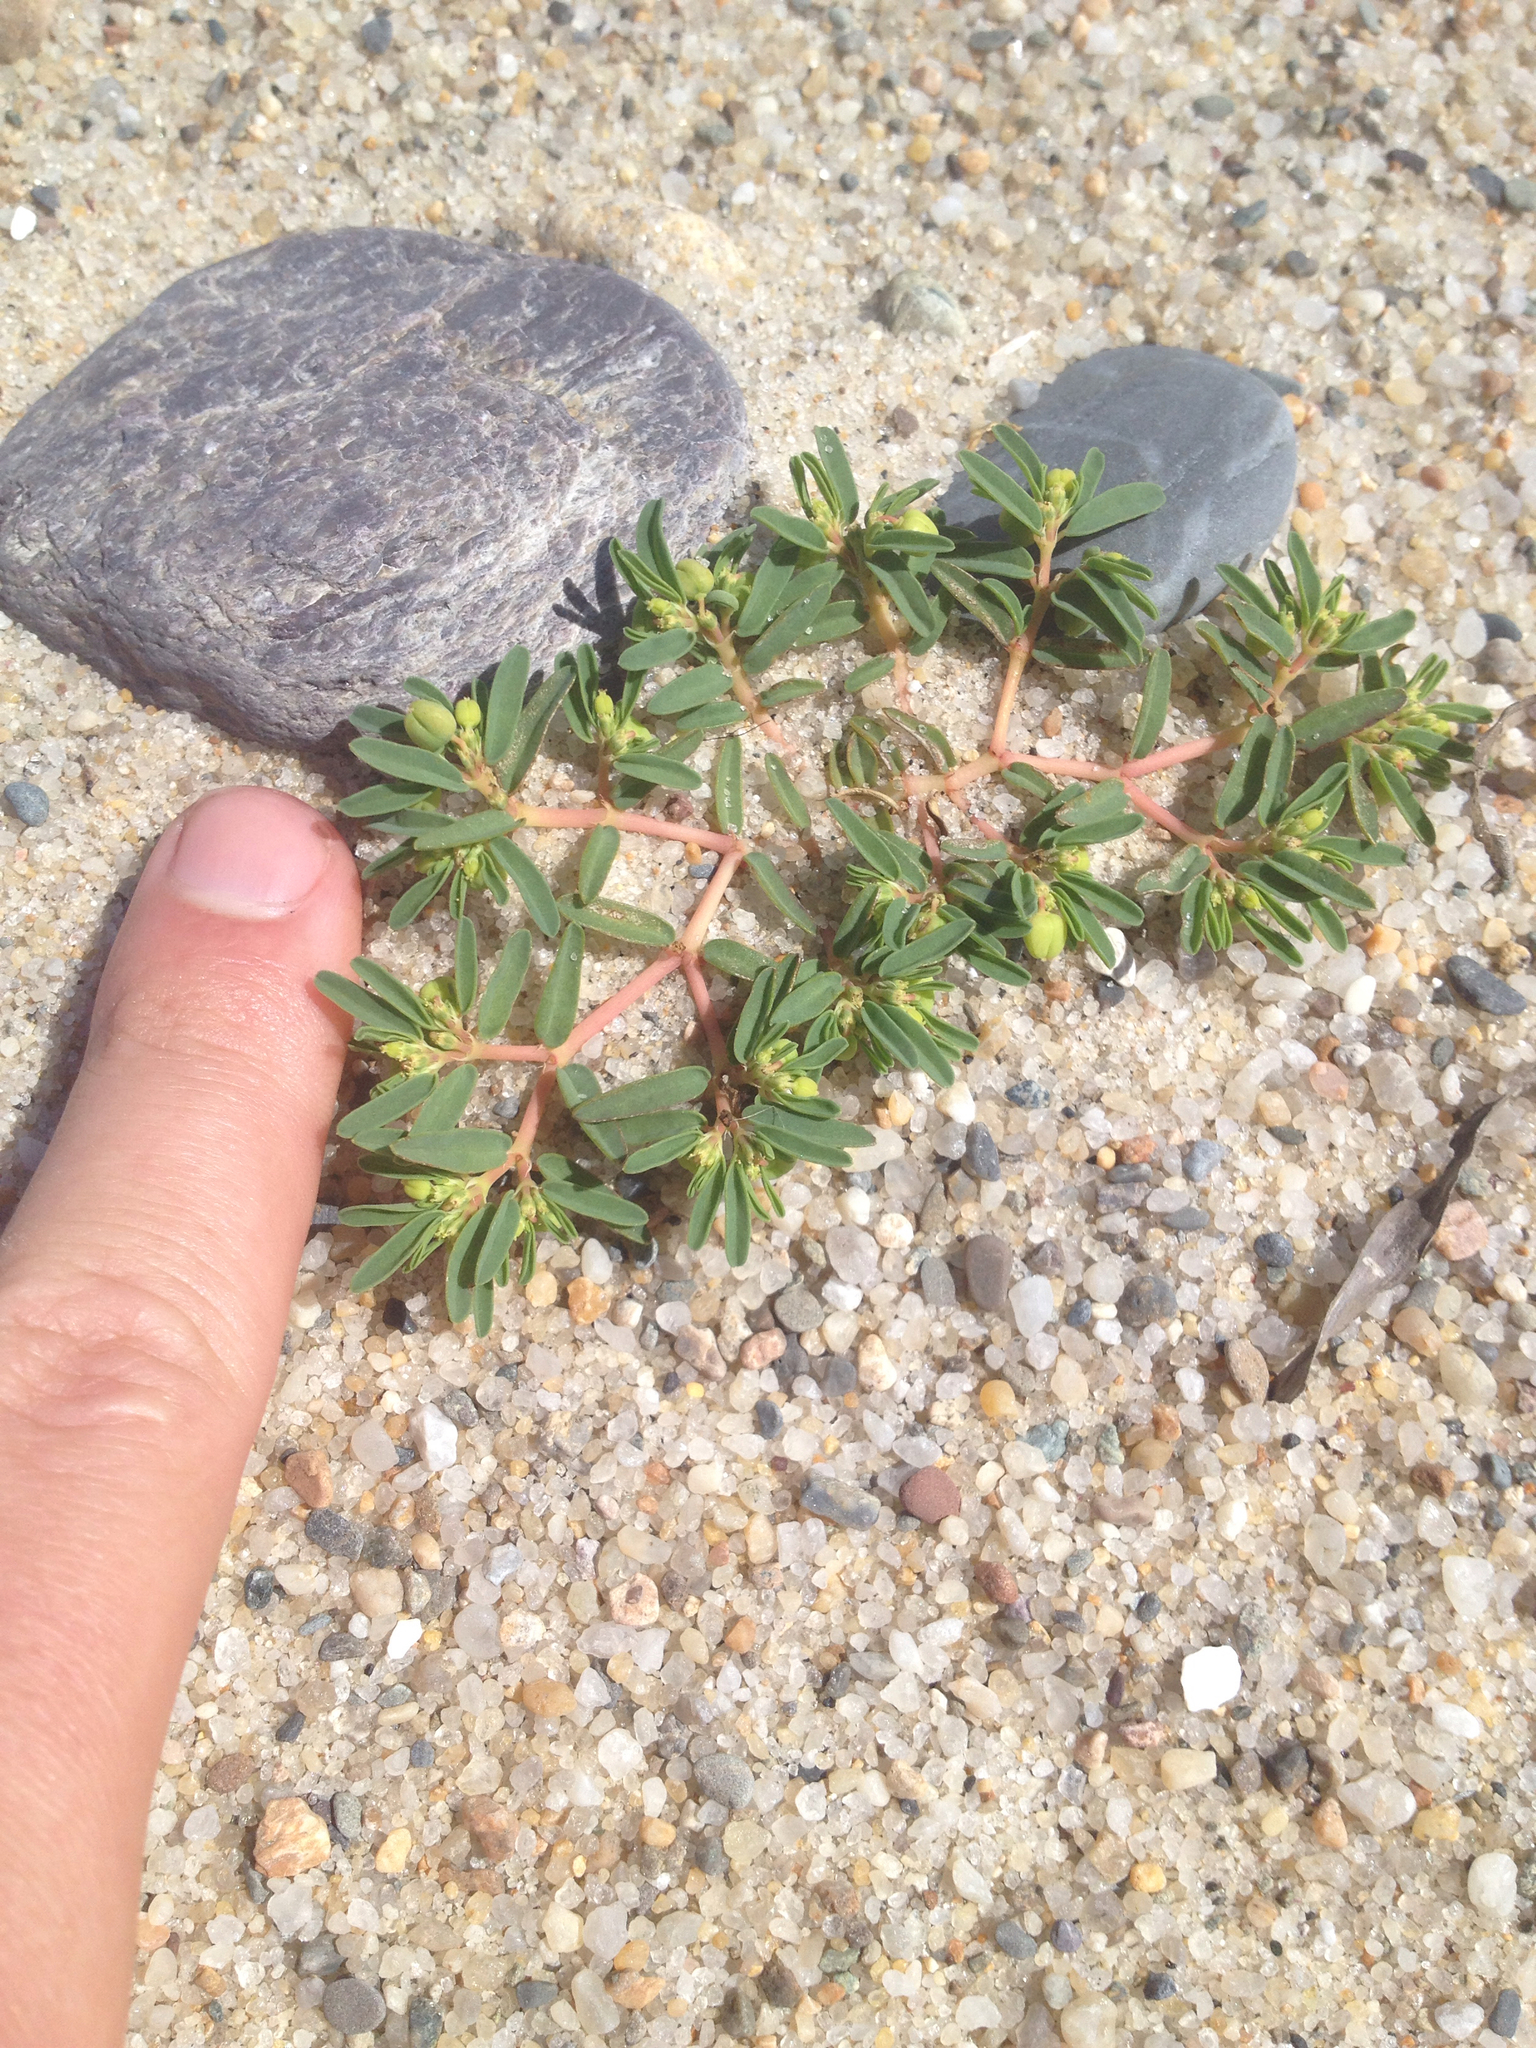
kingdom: Plantae
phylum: Tracheophyta
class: Magnoliopsida
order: Malpighiales
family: Euphorbiaceae
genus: Euphorbia
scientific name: Euphorbia polygonifolia
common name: Knotweed spurge
